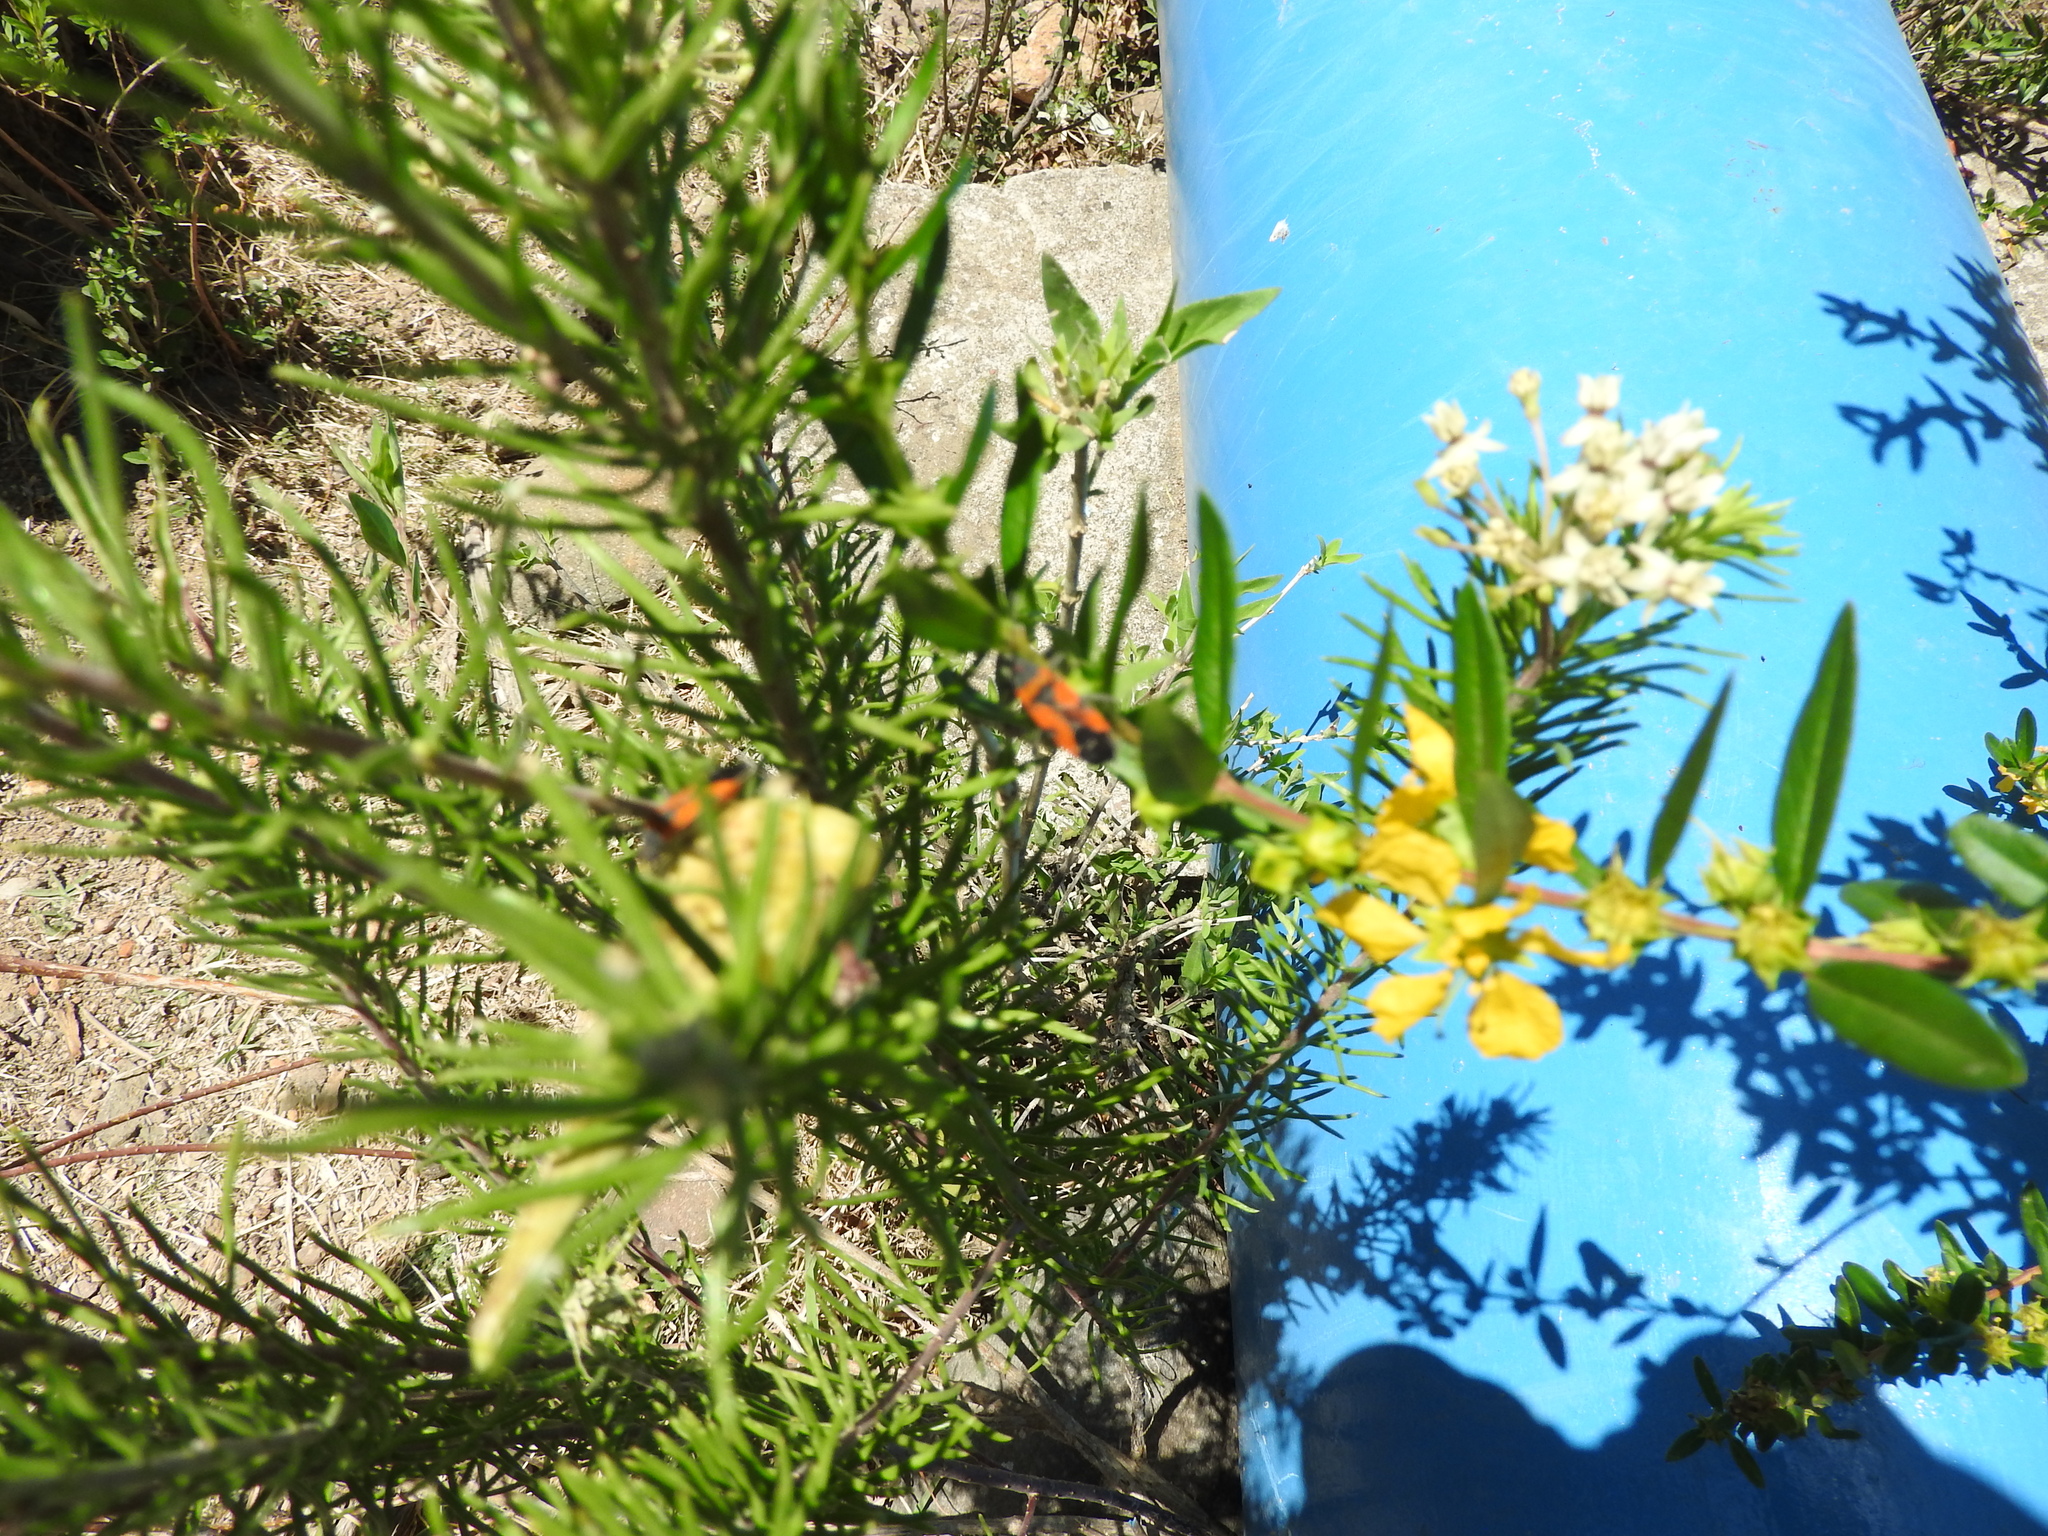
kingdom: Animalia
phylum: Arthropoda
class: Insecta
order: Hemiptera
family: Lygaeidae
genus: Lygaeus
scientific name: Lygaeus reclivatus
